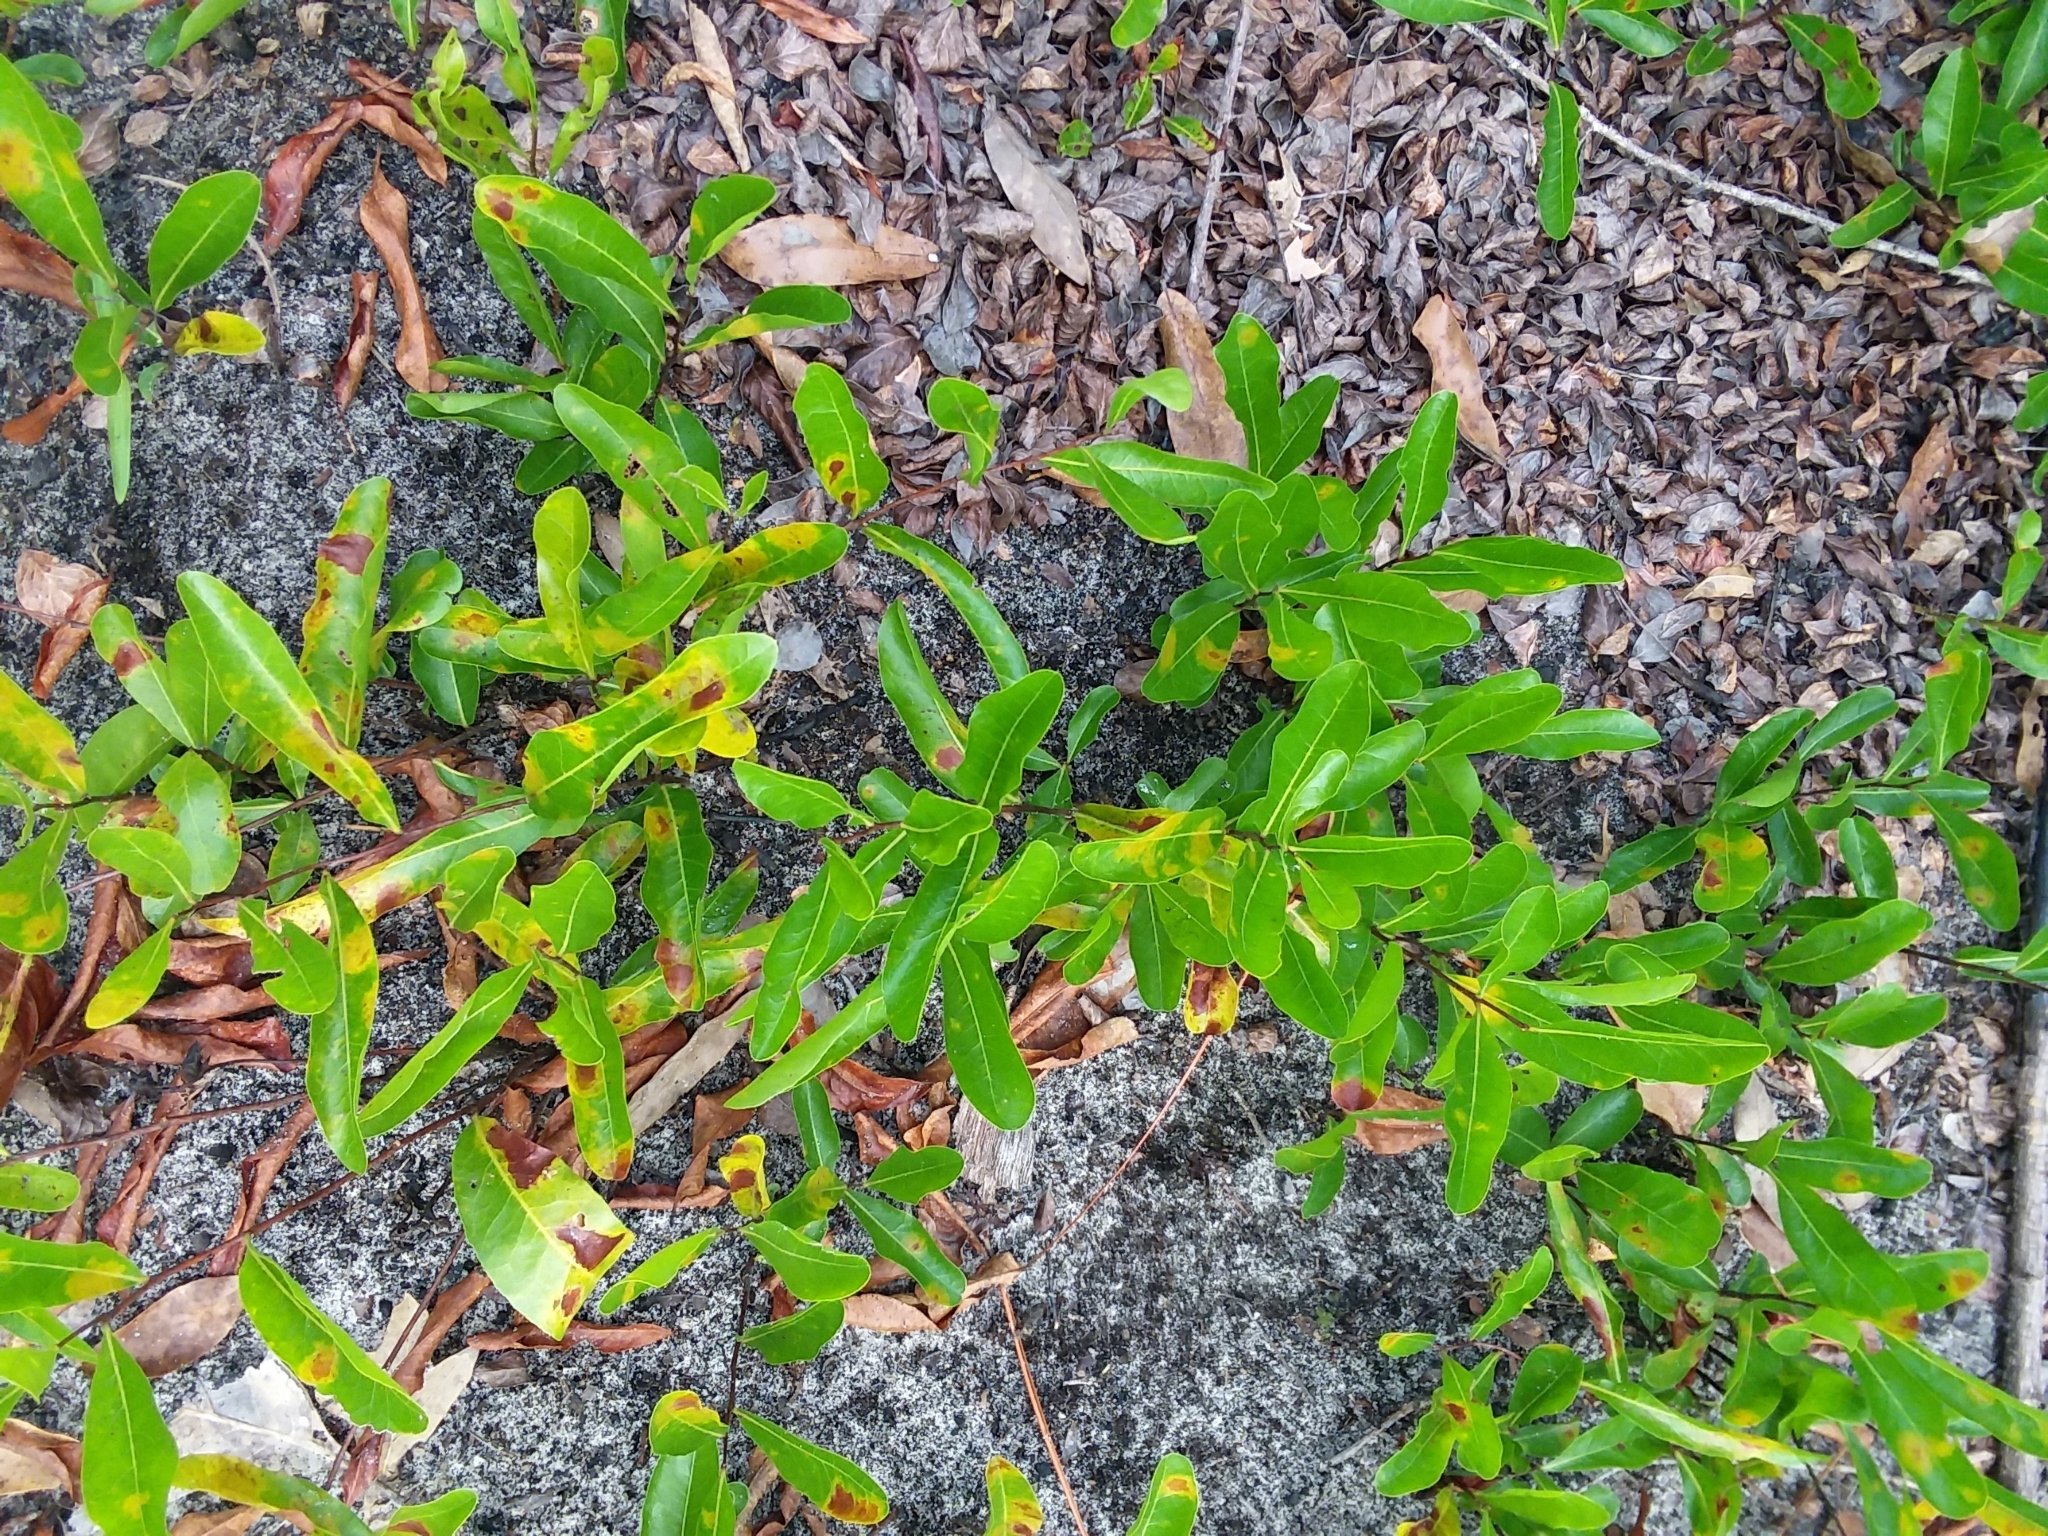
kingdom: Plantae
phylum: Tracheophyta
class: Magnoliopsida
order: Malpighiales
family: Chrysobalanaceae
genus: Geobalanus
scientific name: Geobalanus oblongifolius
